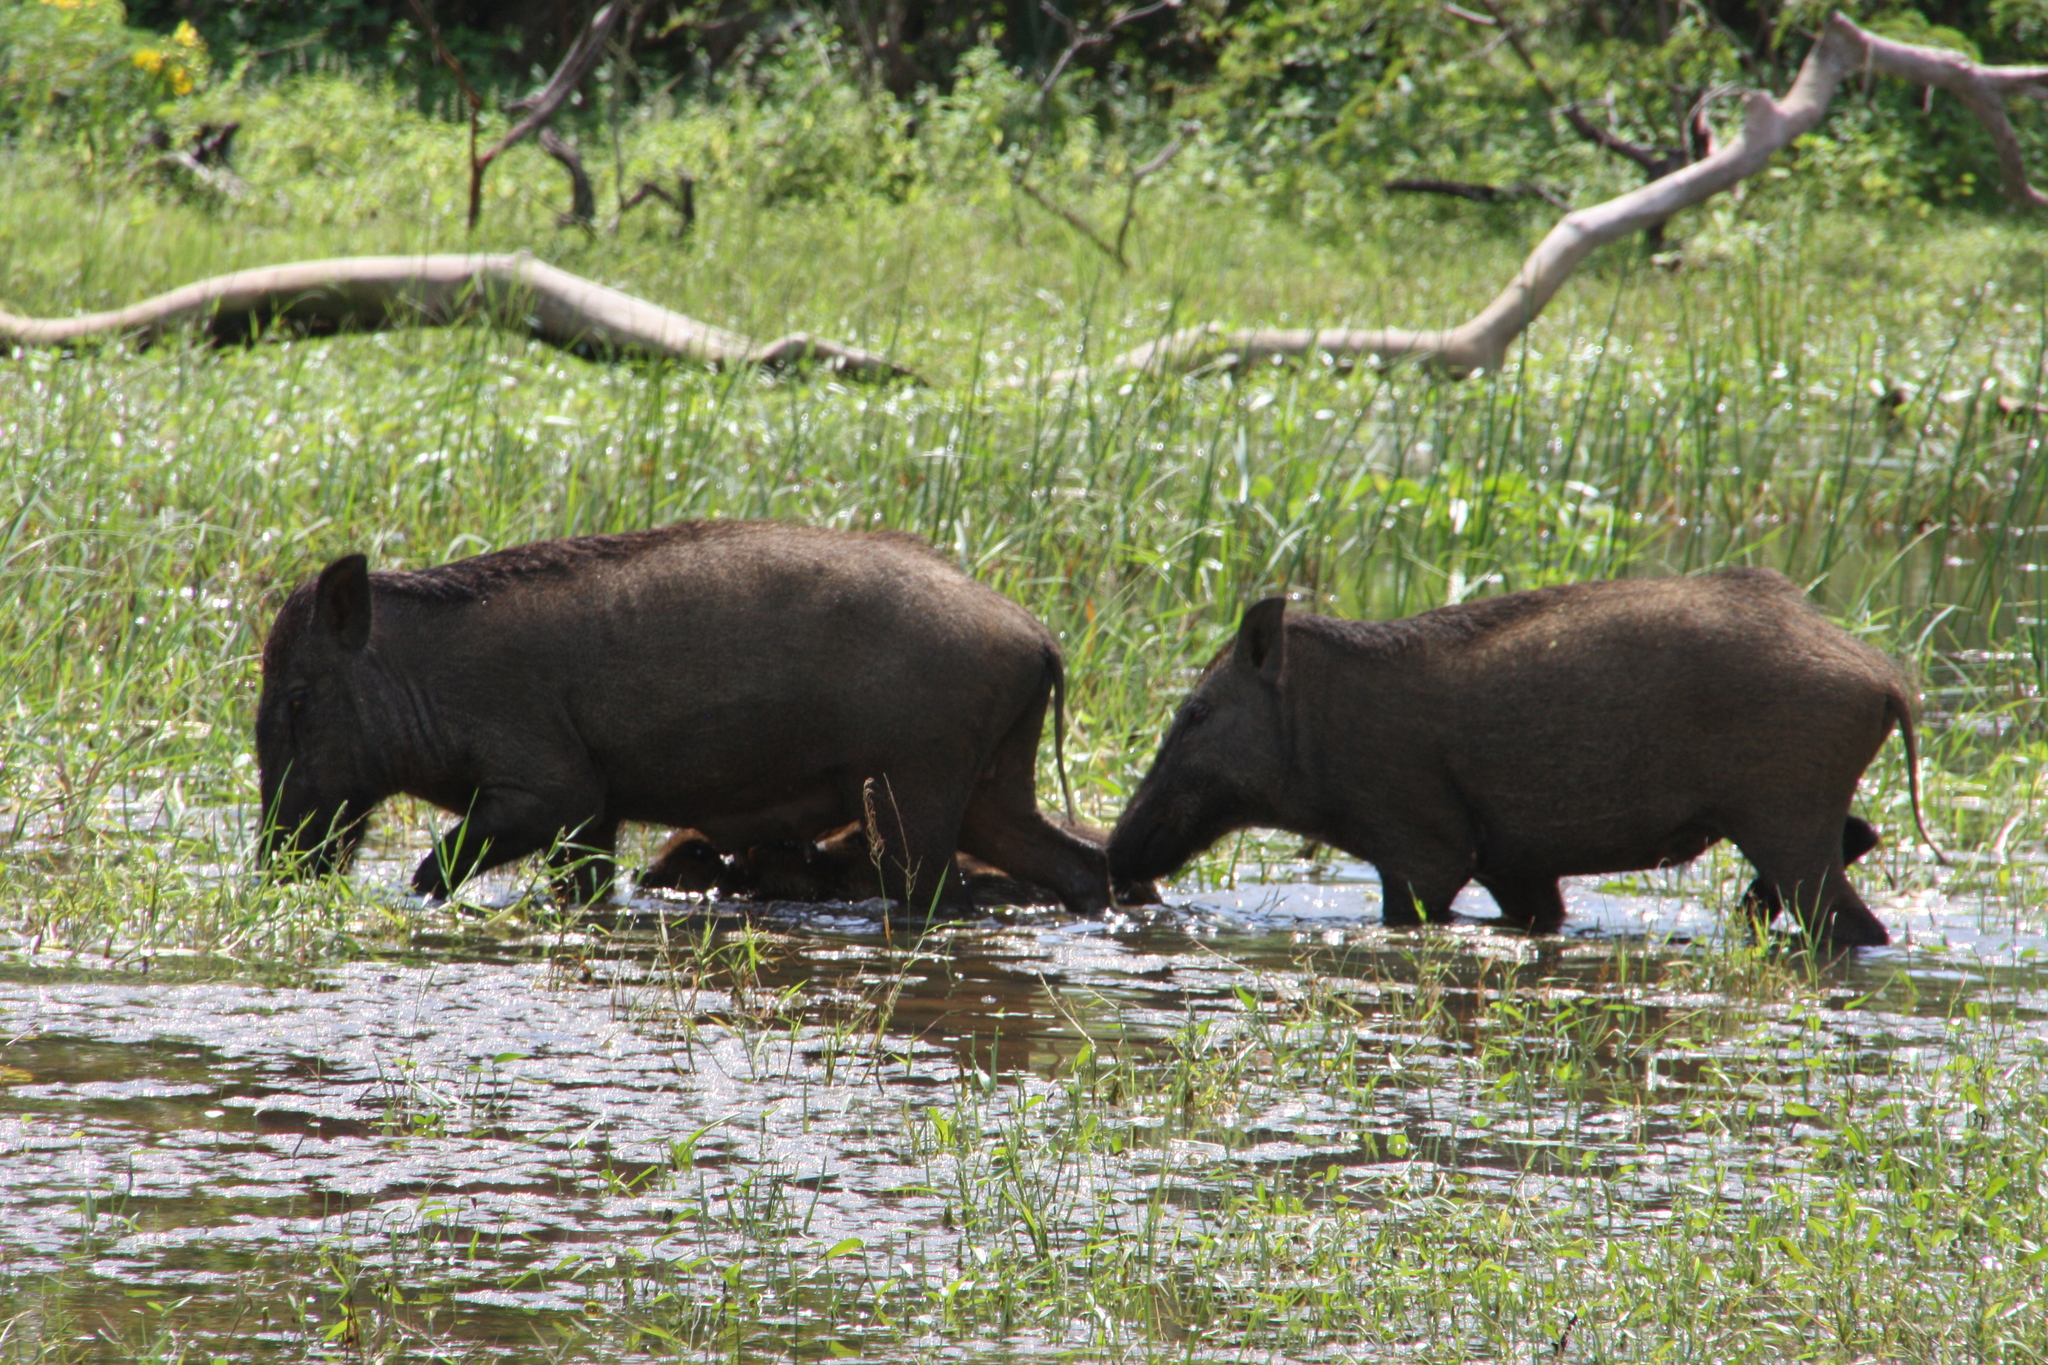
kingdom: Animalia
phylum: Chordata
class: Mammalia
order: Artiodactyla
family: Suidae
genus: Sus
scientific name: Sus scrofa
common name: Wild boar
